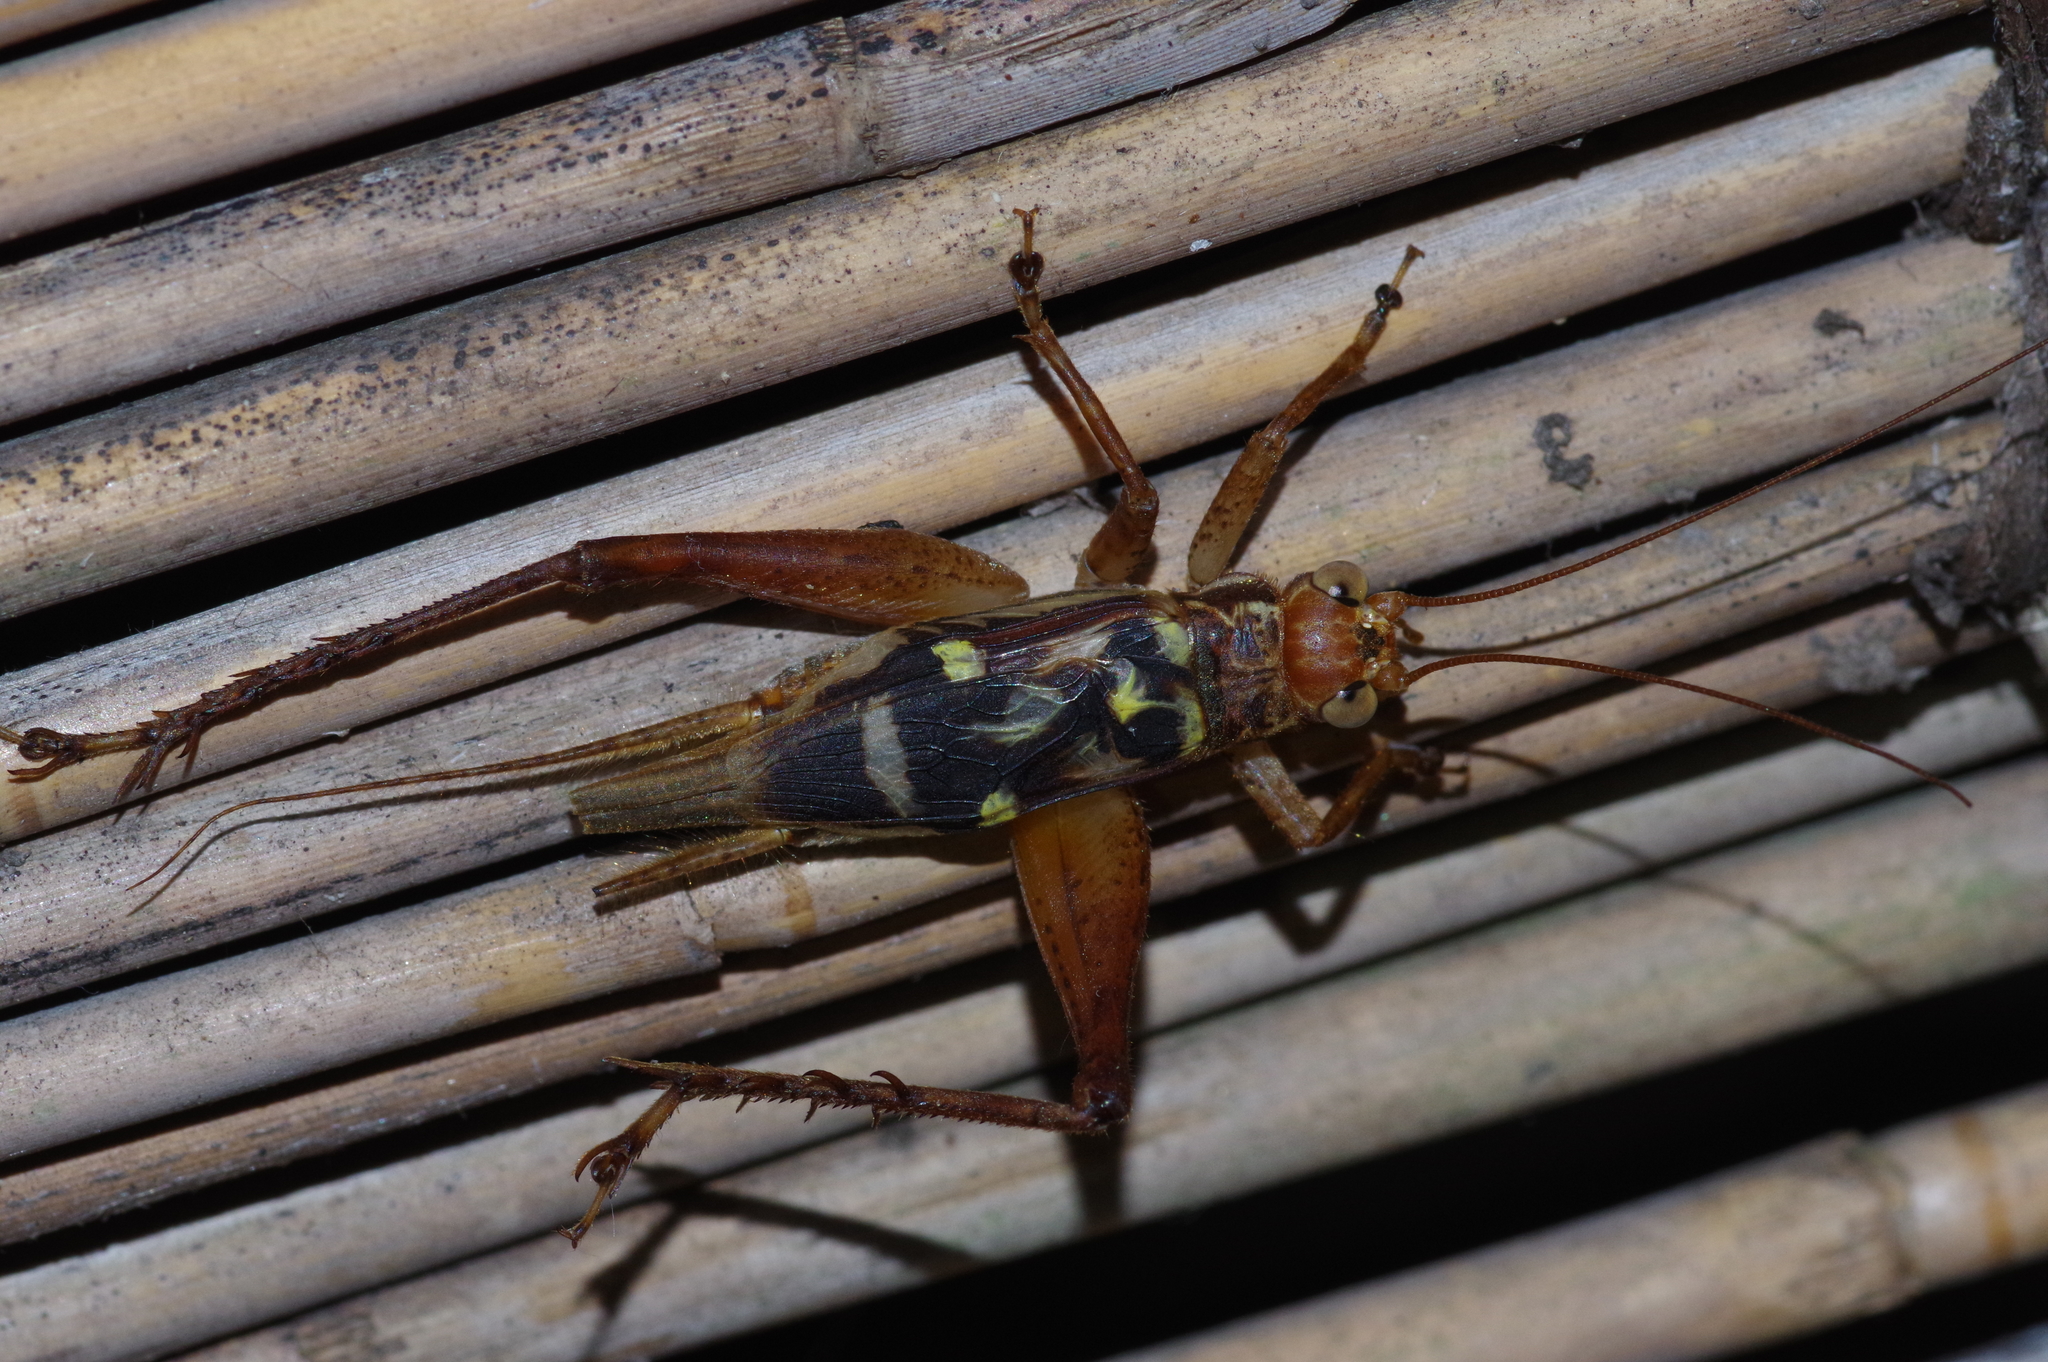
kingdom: Animalia
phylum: Arthropoda
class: Insecta
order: Orthoptera
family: Gryllidae
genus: Cardiodactylus
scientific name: Cardiodactylus guttulus
